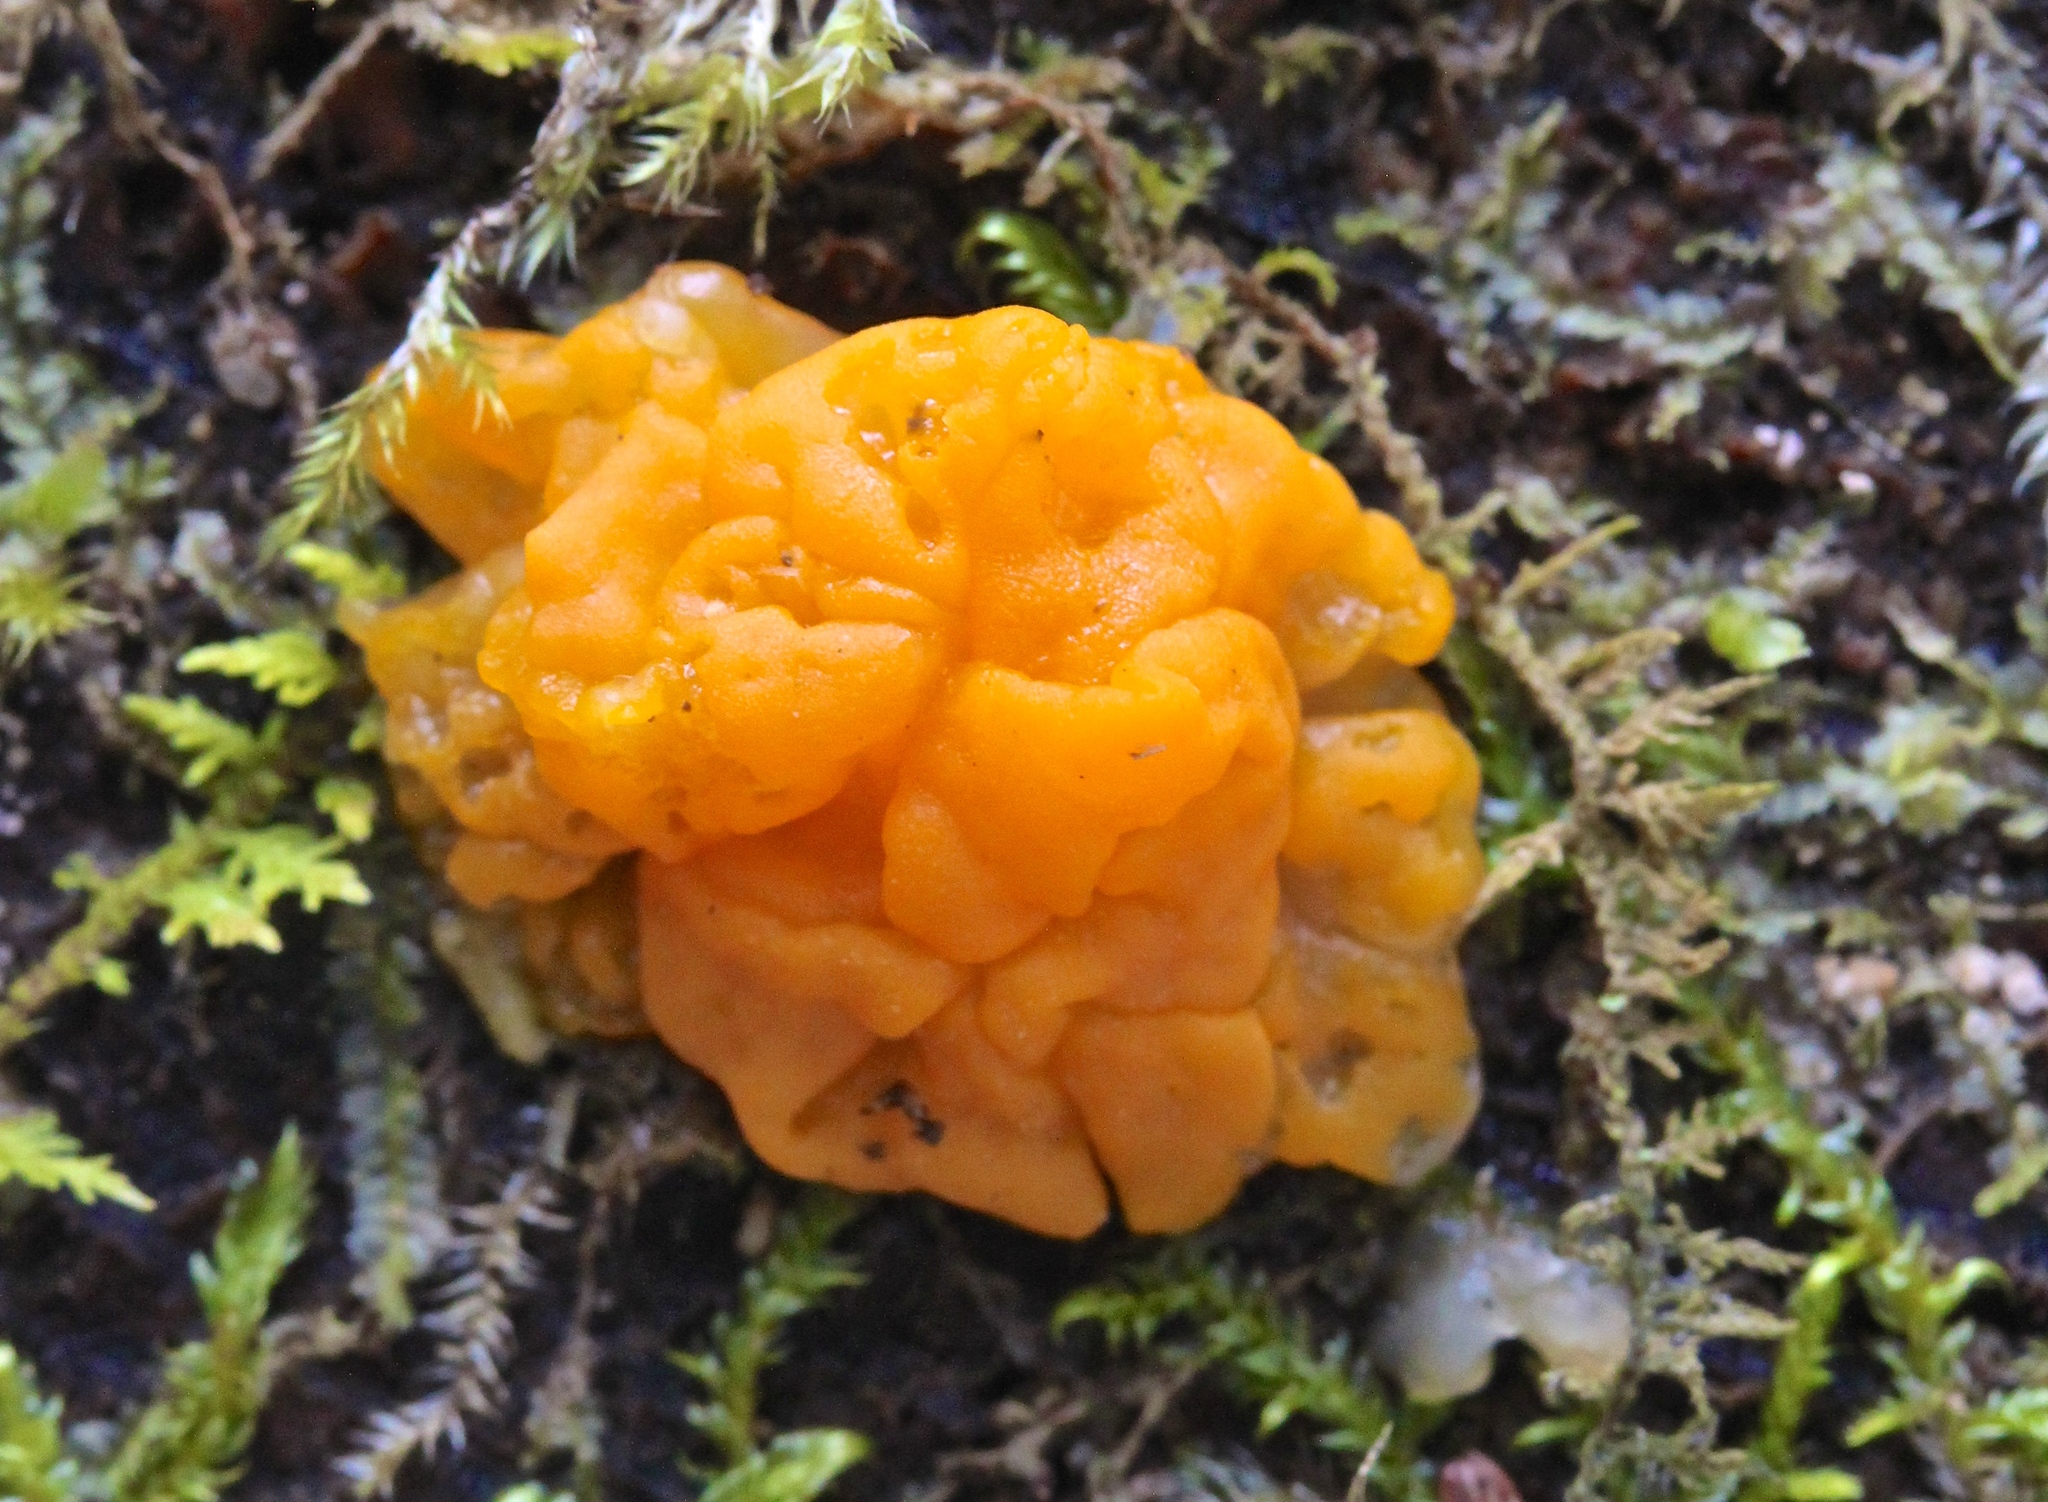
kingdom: Fungi
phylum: Basidiomycota
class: Dacrymycetes
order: Dacrymycetales
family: Dacrymycetaceae
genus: Dacrymyces
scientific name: Dacrymyces chrysospermus
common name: Orange jelly spot
